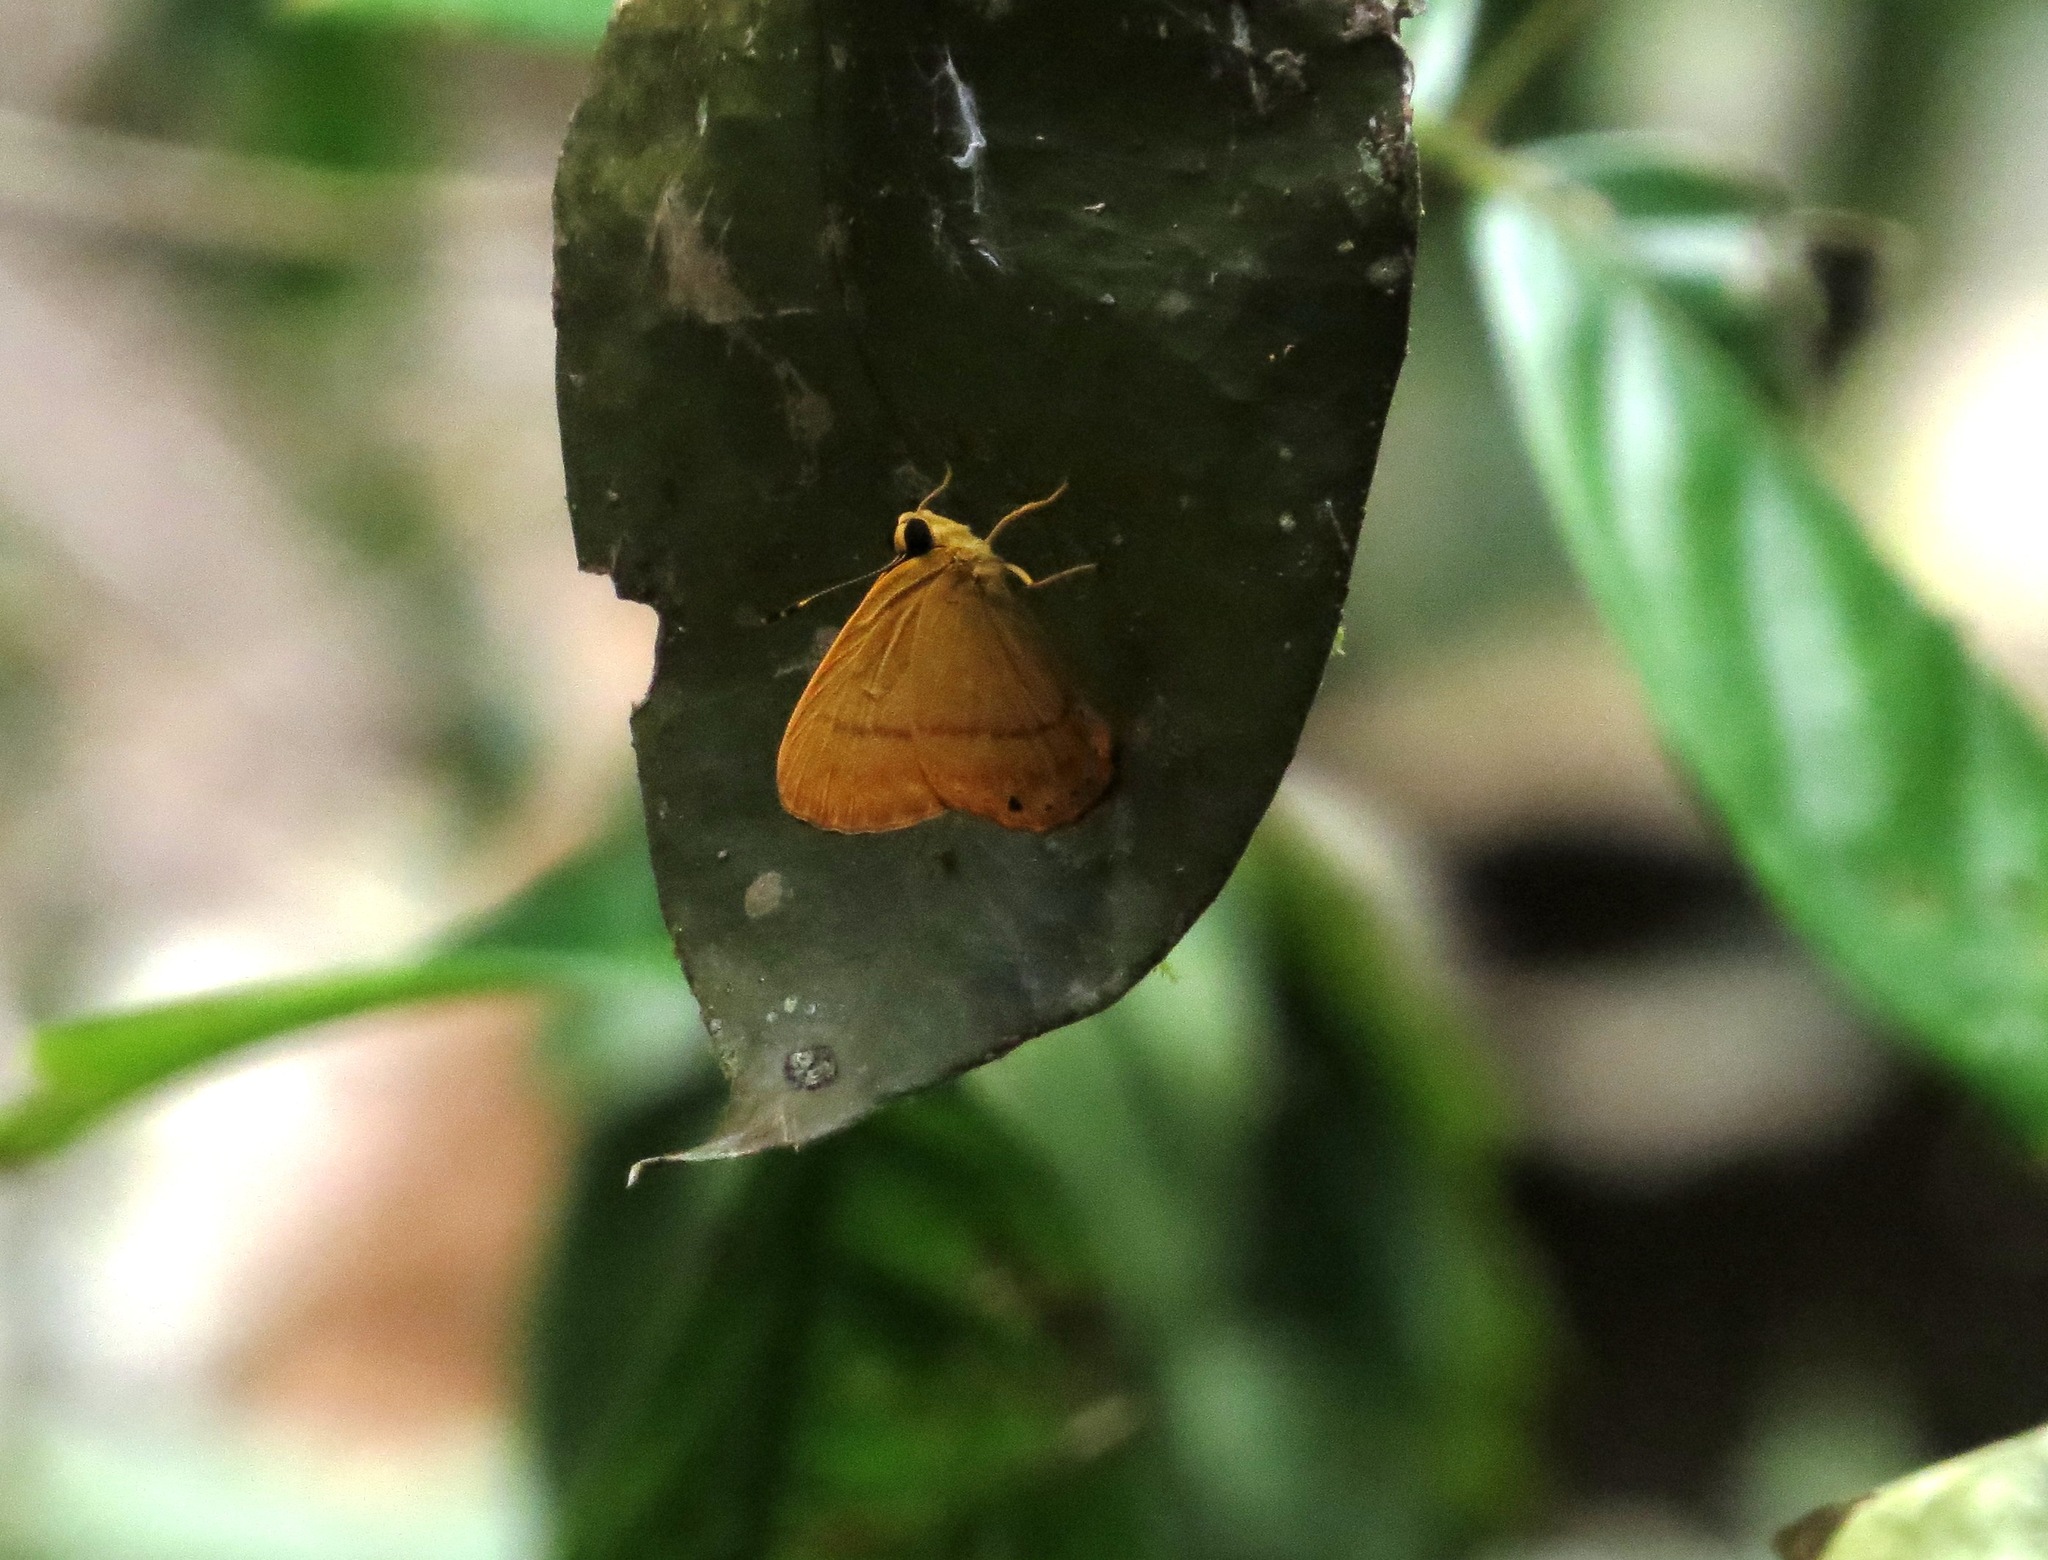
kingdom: Animalia
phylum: Arthropoda
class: Insecta
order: Hemiptera
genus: Marmessus
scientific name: Marmessus
